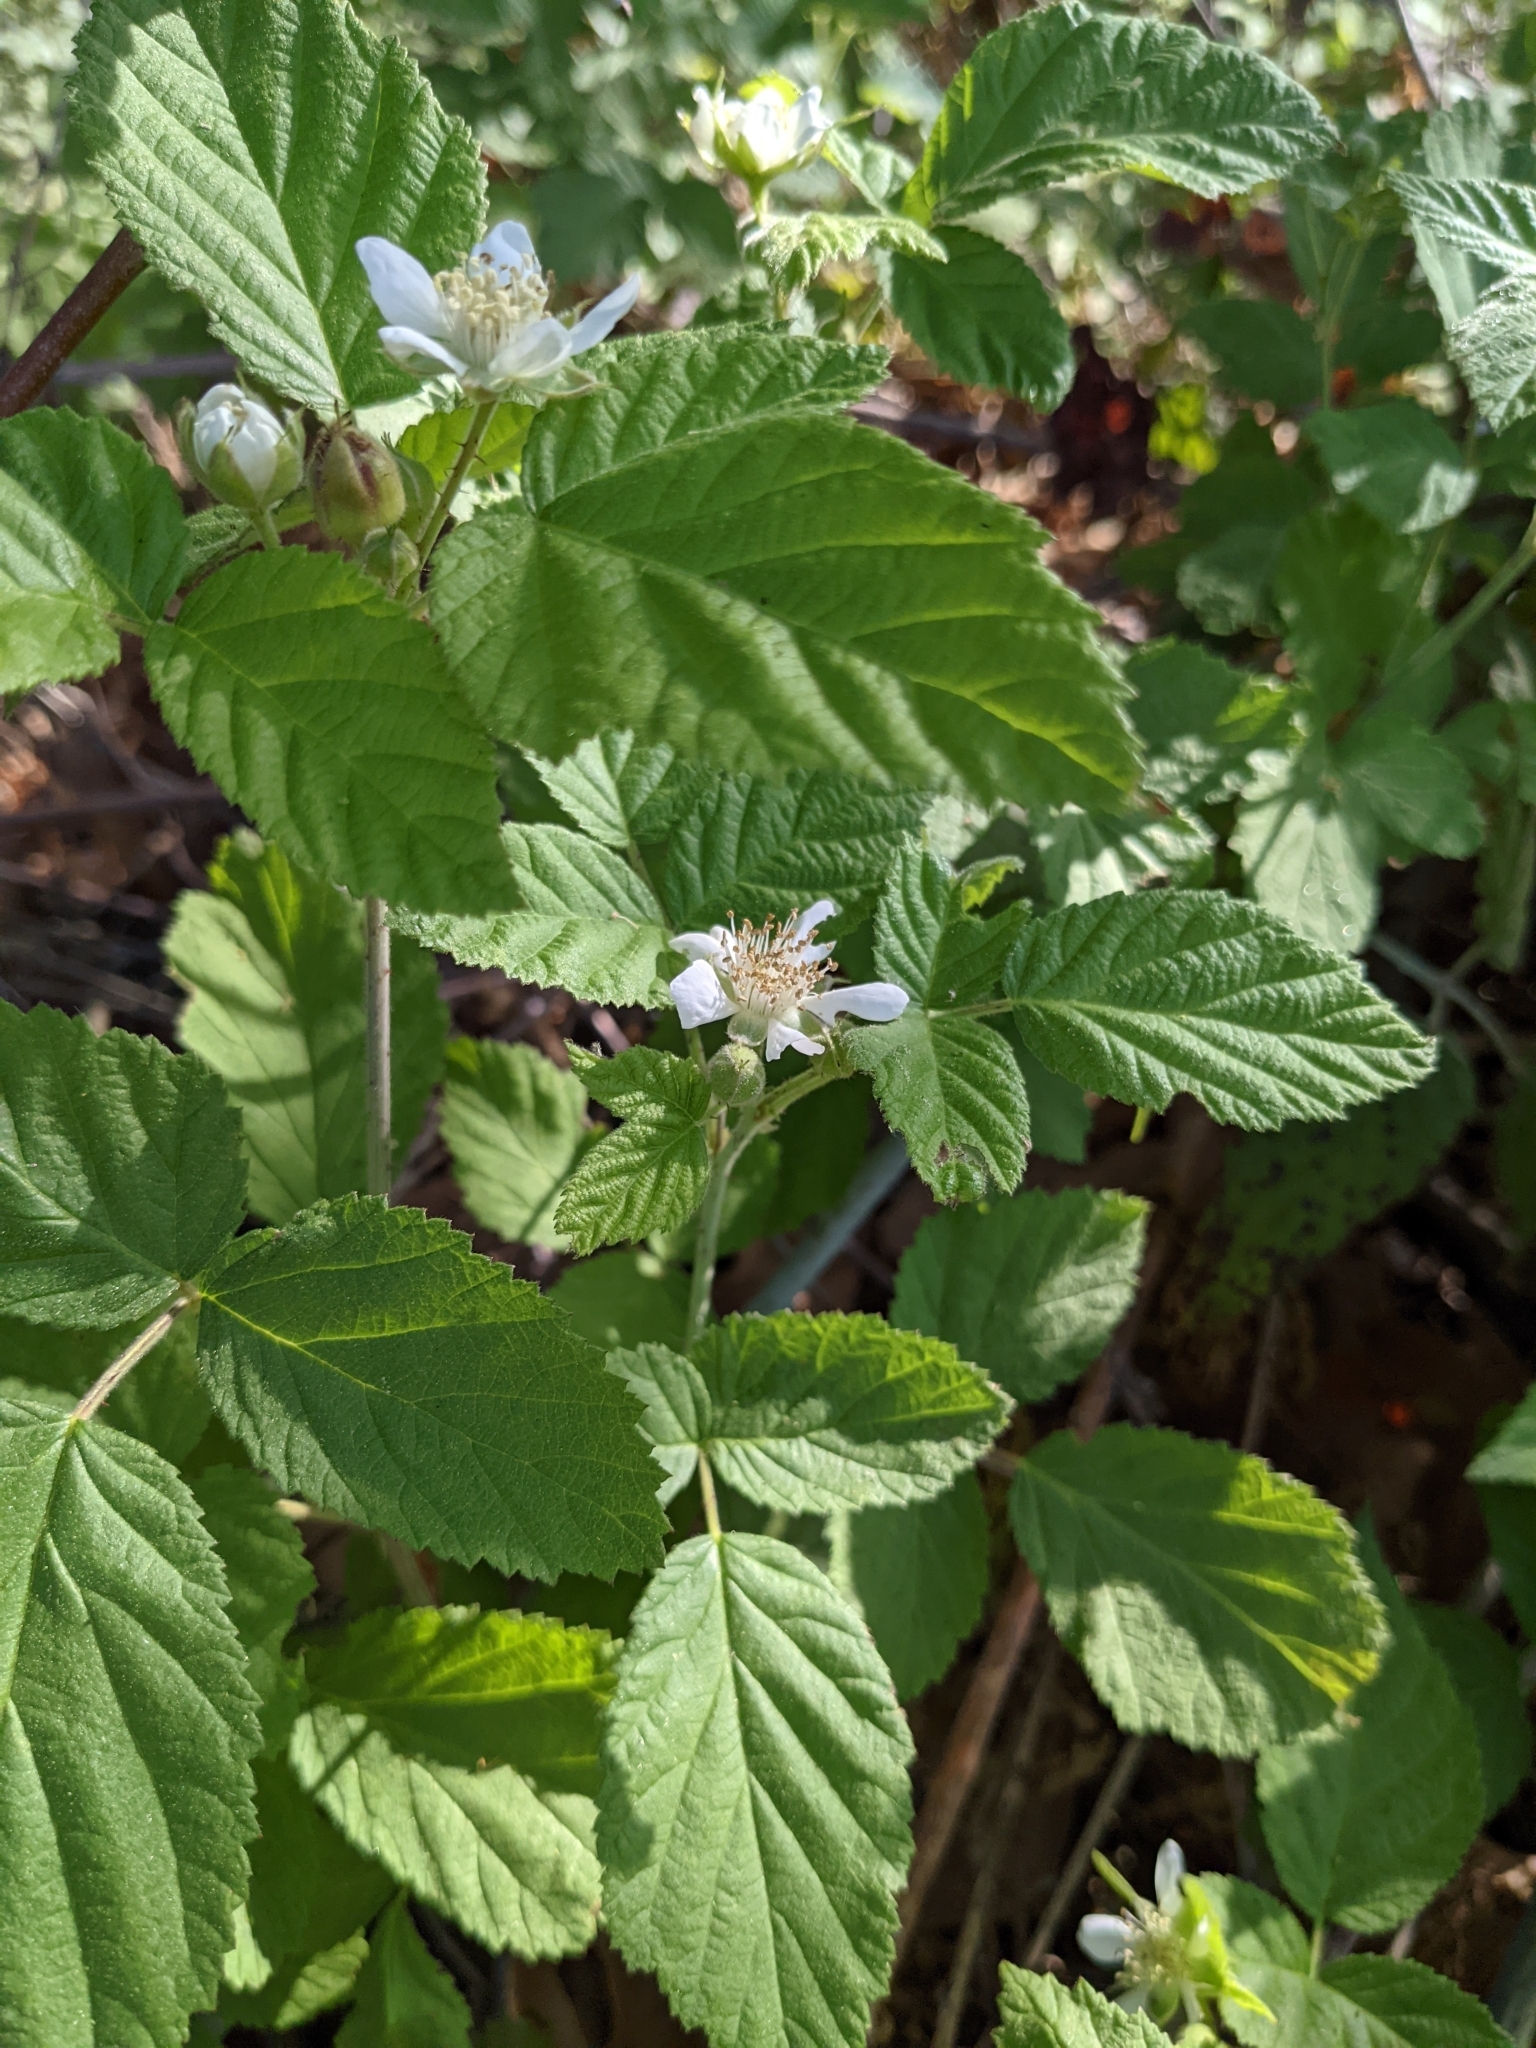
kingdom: Plantae
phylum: Tracheophyta
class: Magnoliopsida
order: Rosales
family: Rosaceae
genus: Rubus
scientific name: Rubus ursinus
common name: Pacific blackberry
